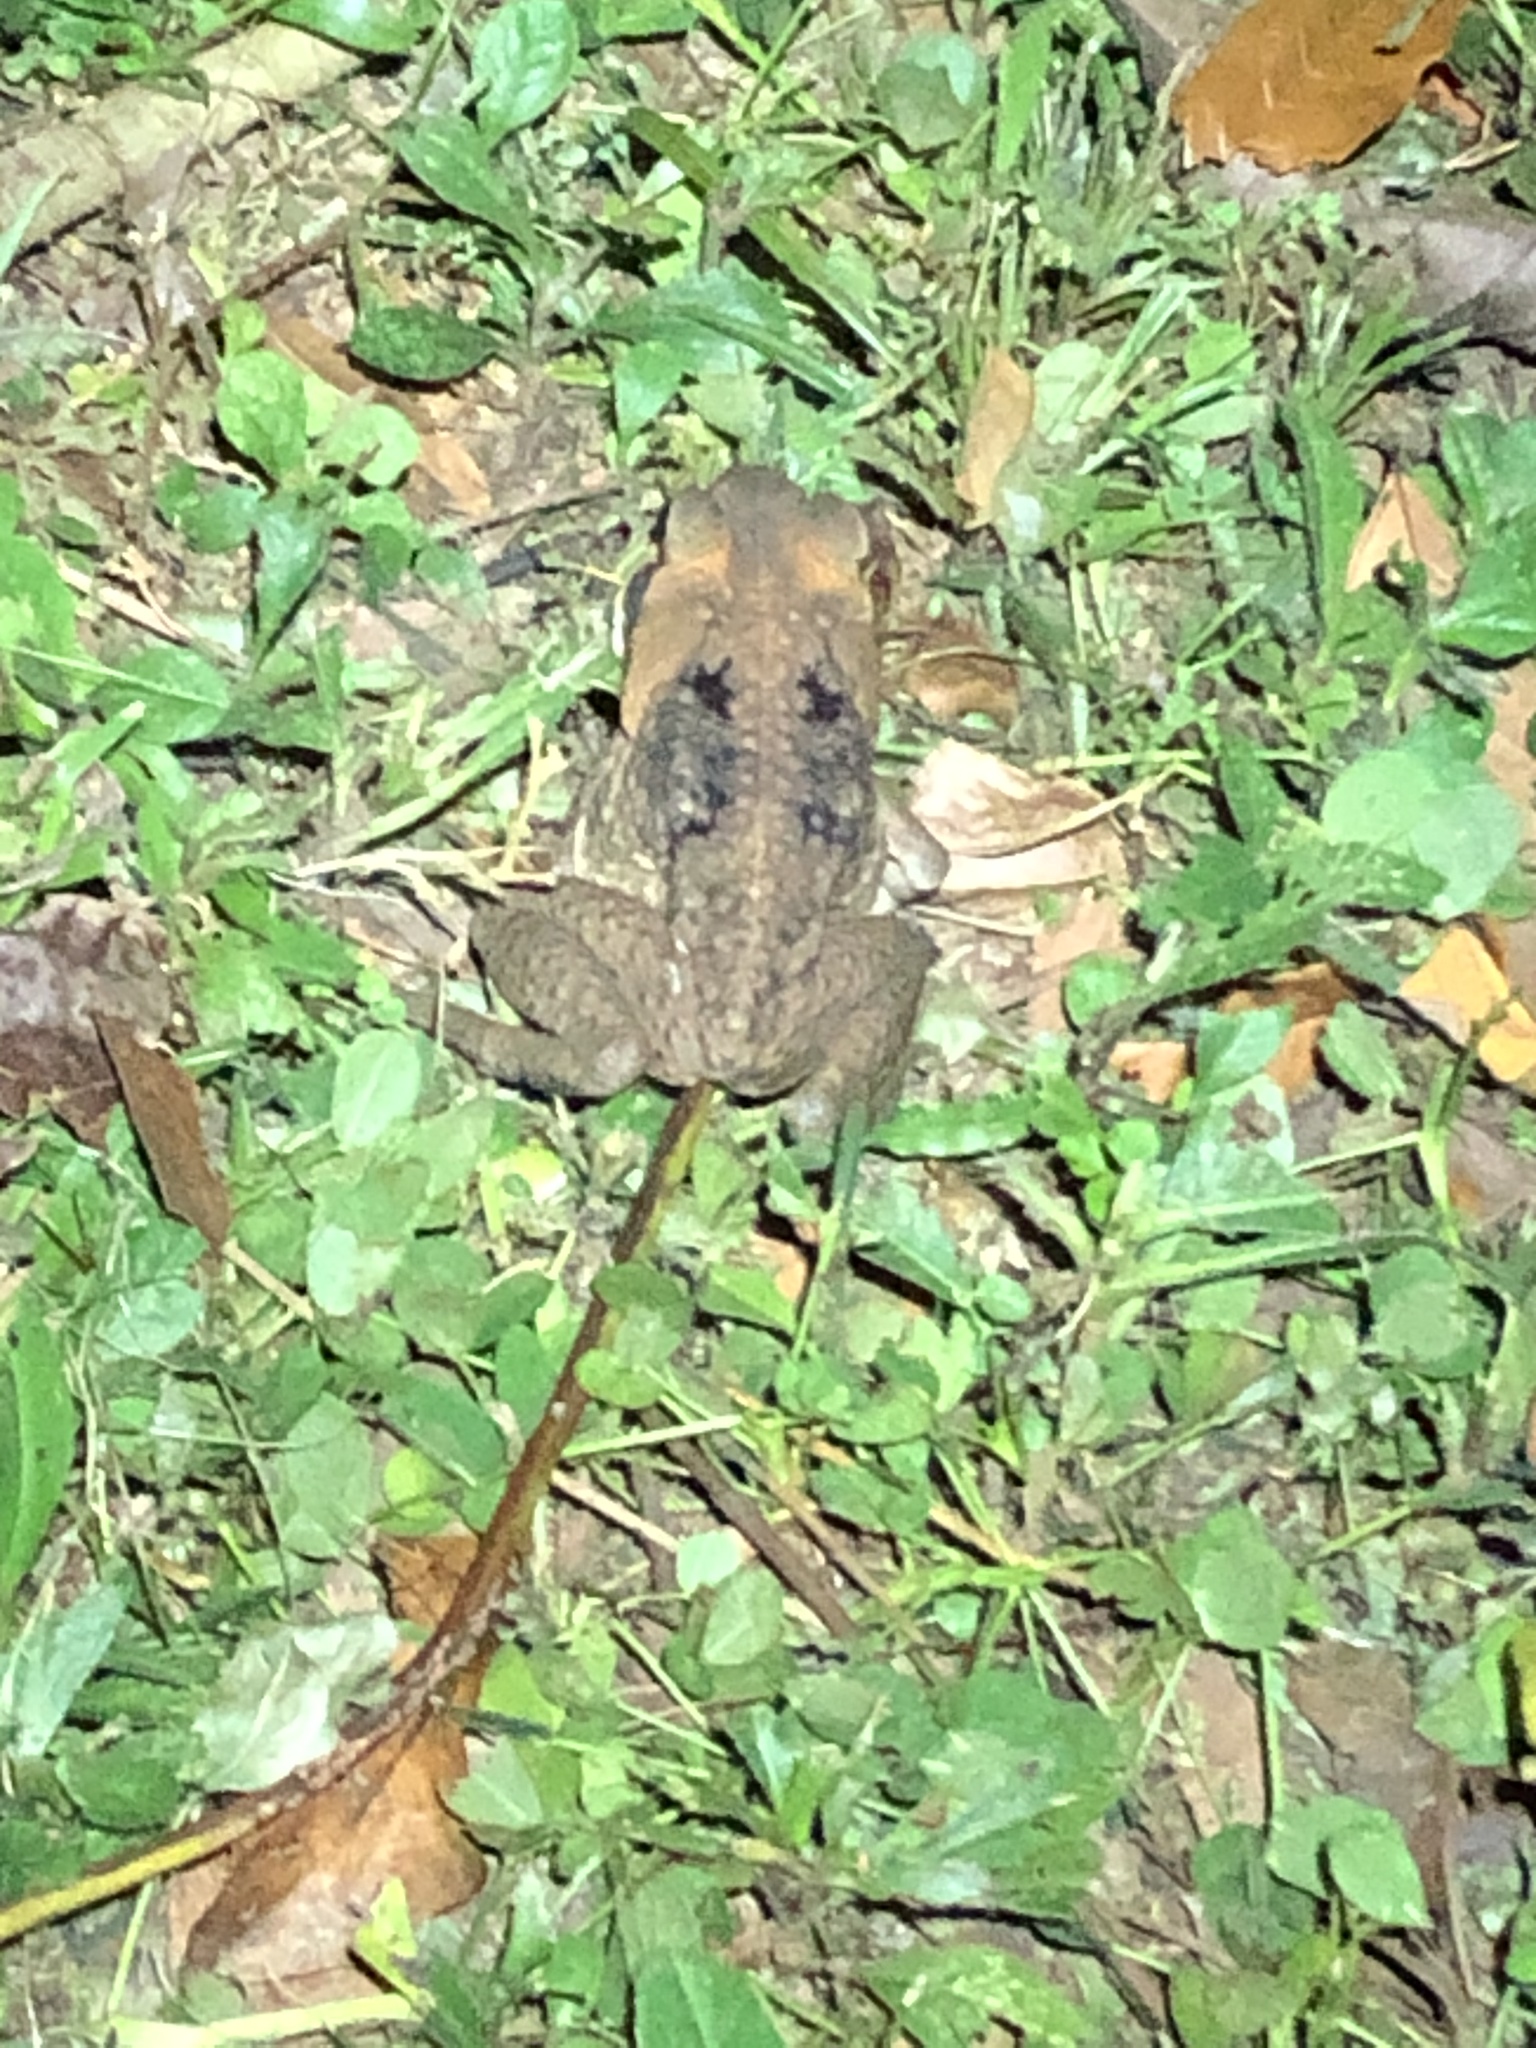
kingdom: Animalia
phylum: Chordata
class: Amphibia
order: Anura
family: Bufonidae
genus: Rhinella
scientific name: Rhinella marina
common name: Cane toad
